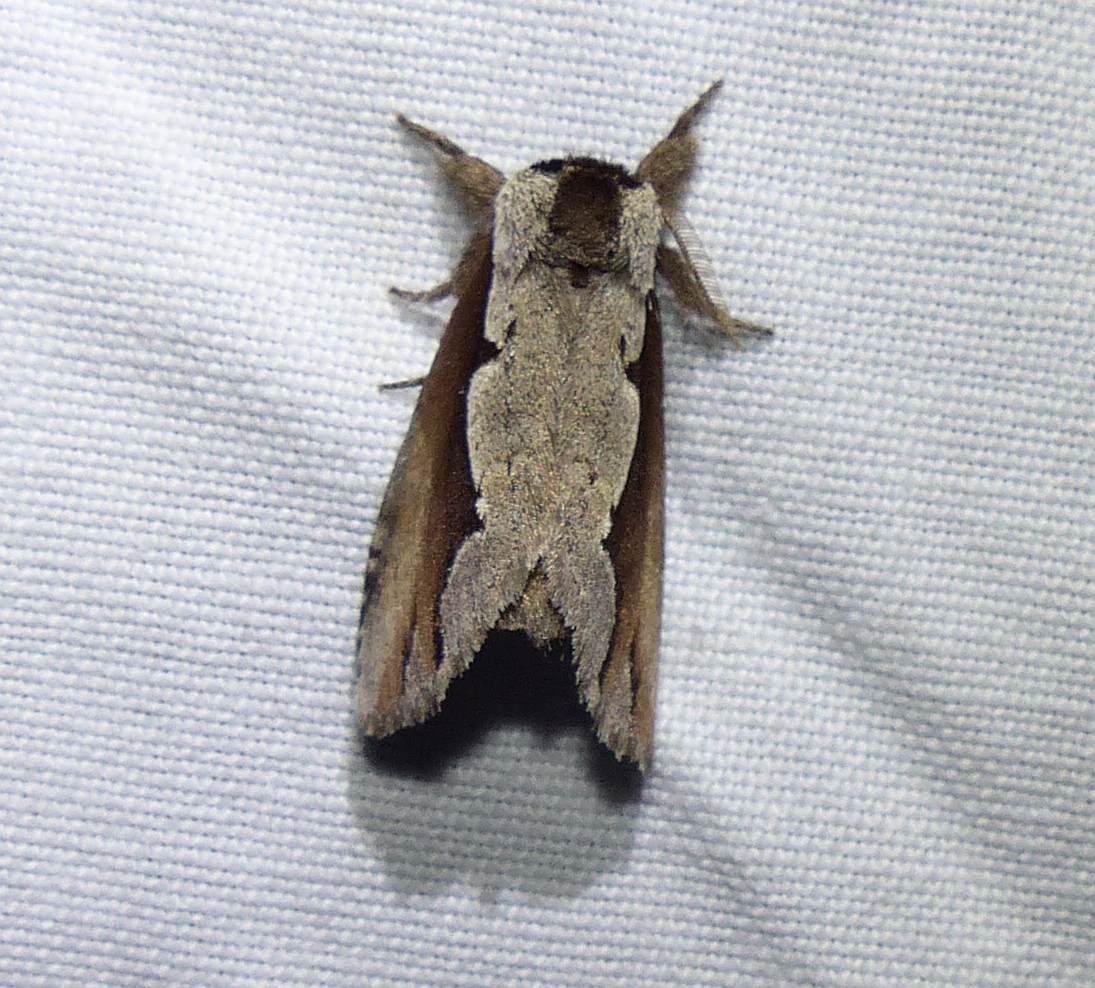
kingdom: Animalia
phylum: Arthropoda
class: Insecta
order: Lepidoptera
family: Notodontidae
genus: Nerice
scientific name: Nerice bidentata
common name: Double-toothed prominent
